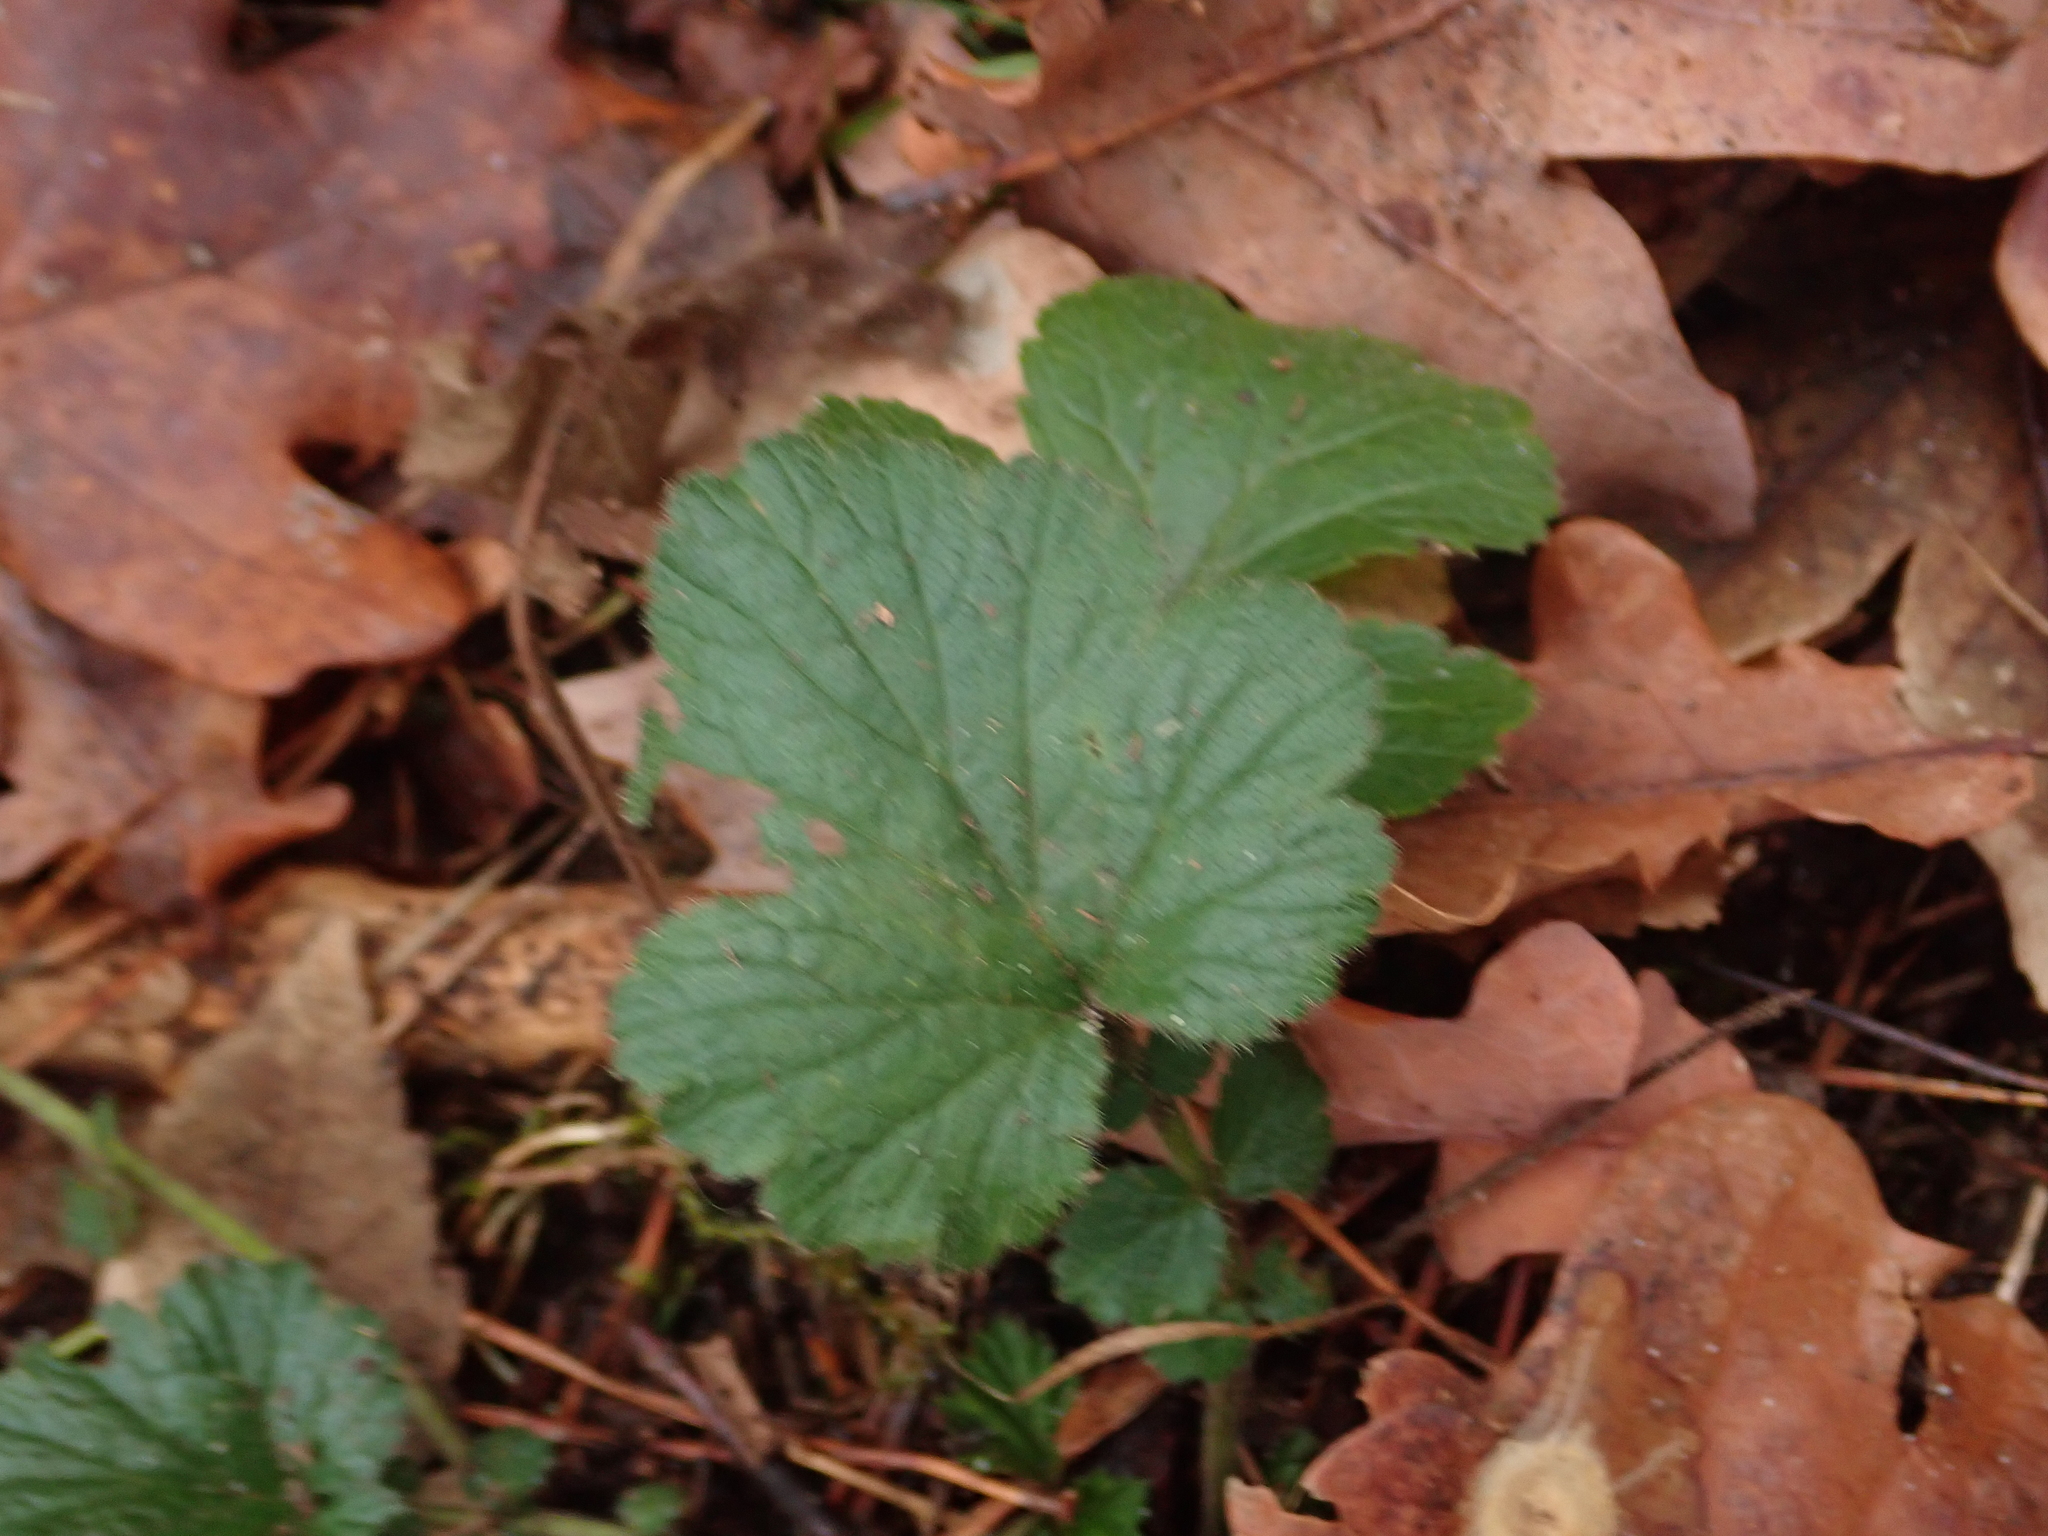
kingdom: Plantae
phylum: Tracheophyta
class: Magnoliopsida
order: Rosales
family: Rosaceae
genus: Geum
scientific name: Geum urbanum
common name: Wood avens
